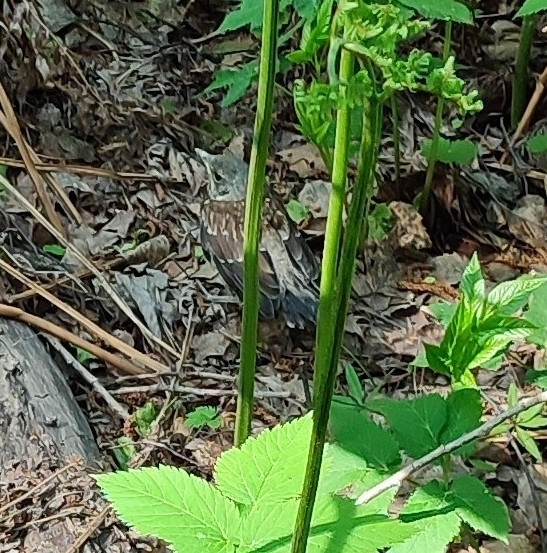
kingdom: Animalia
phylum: Chordata
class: Aves
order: Passeriformes
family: Turdidae
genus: Turdus
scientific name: Turdus pilaris
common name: Fieldfare
